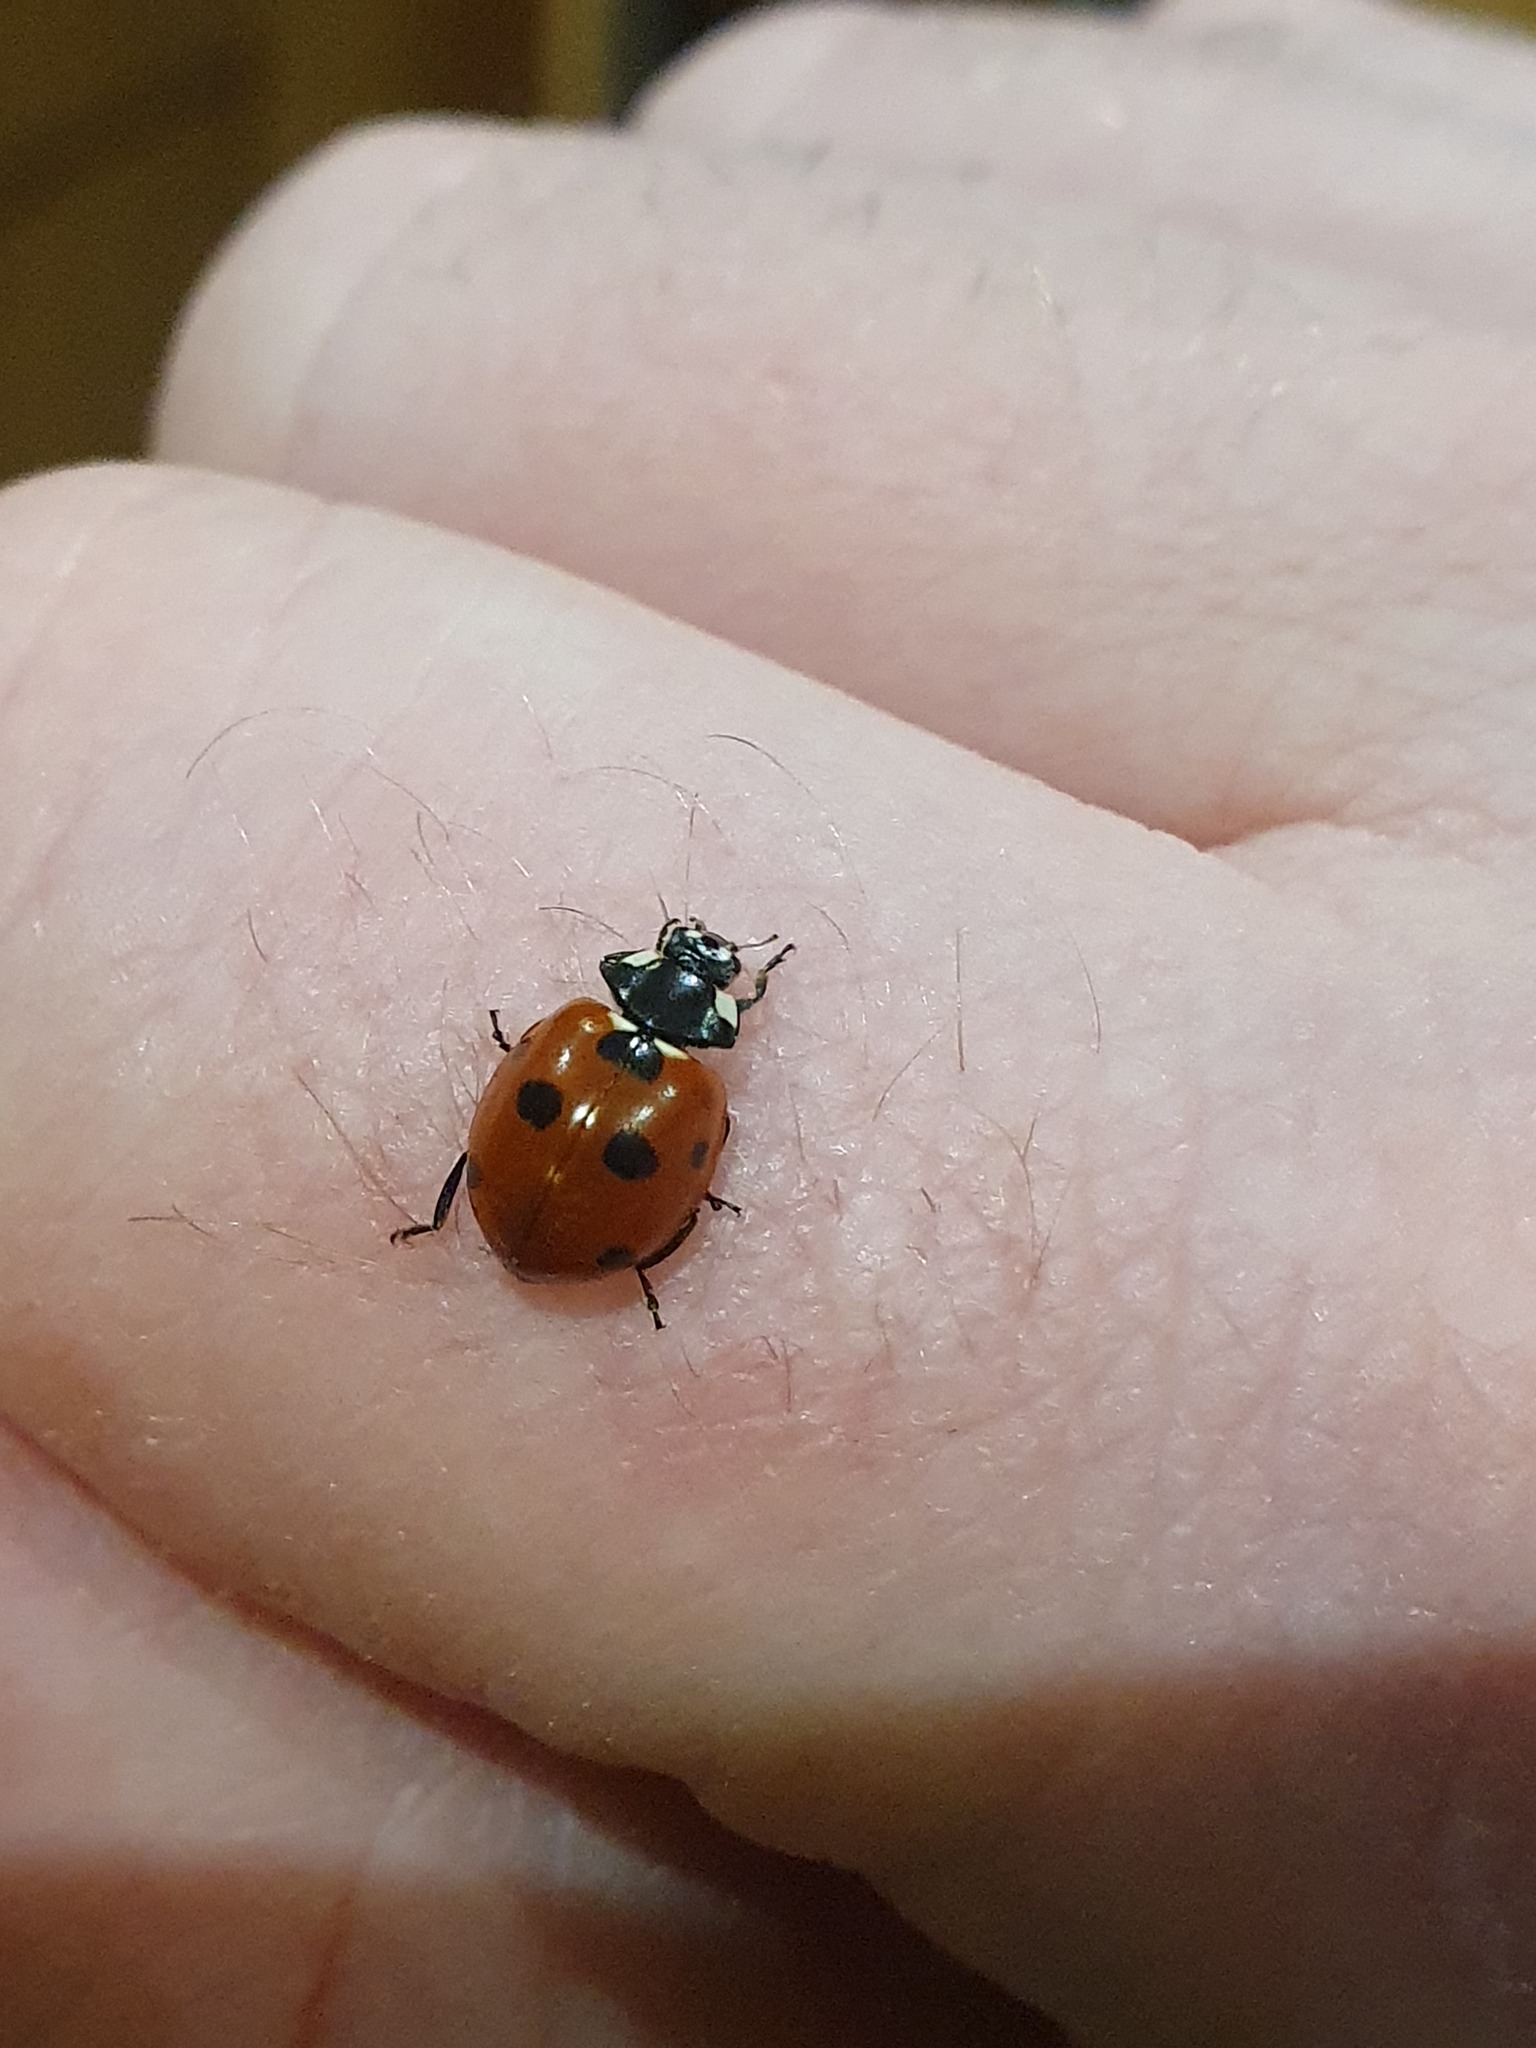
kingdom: Animalia
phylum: Arthropoda
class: Insecta
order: Coleoptera
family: Coccinellidae
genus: Coccinella
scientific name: Coccinella septempunctata
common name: Sevenspotted lady beetle
